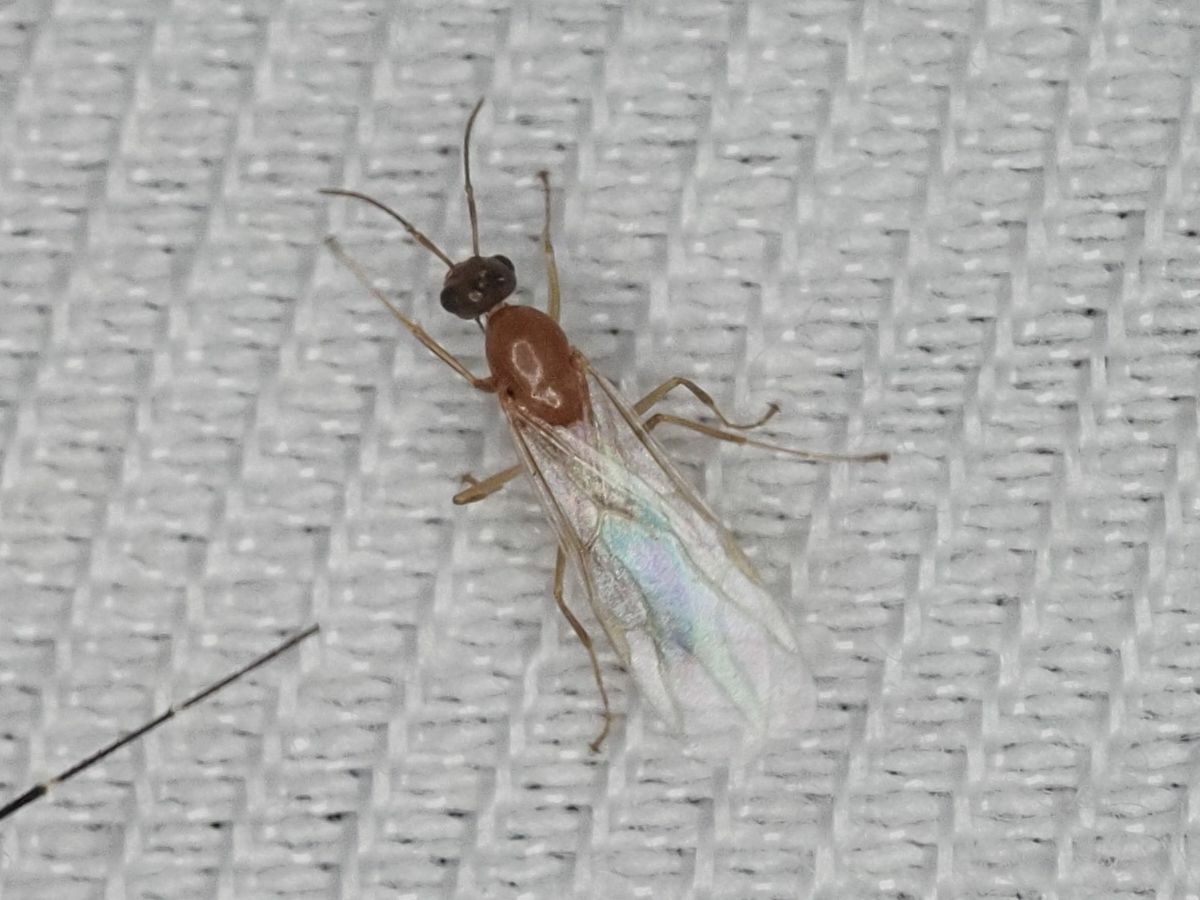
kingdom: Animalia
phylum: Arthropoda
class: Insecta
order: Hymenoptera
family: Formicidae
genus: Camponotus
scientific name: Camponotus truncatus
